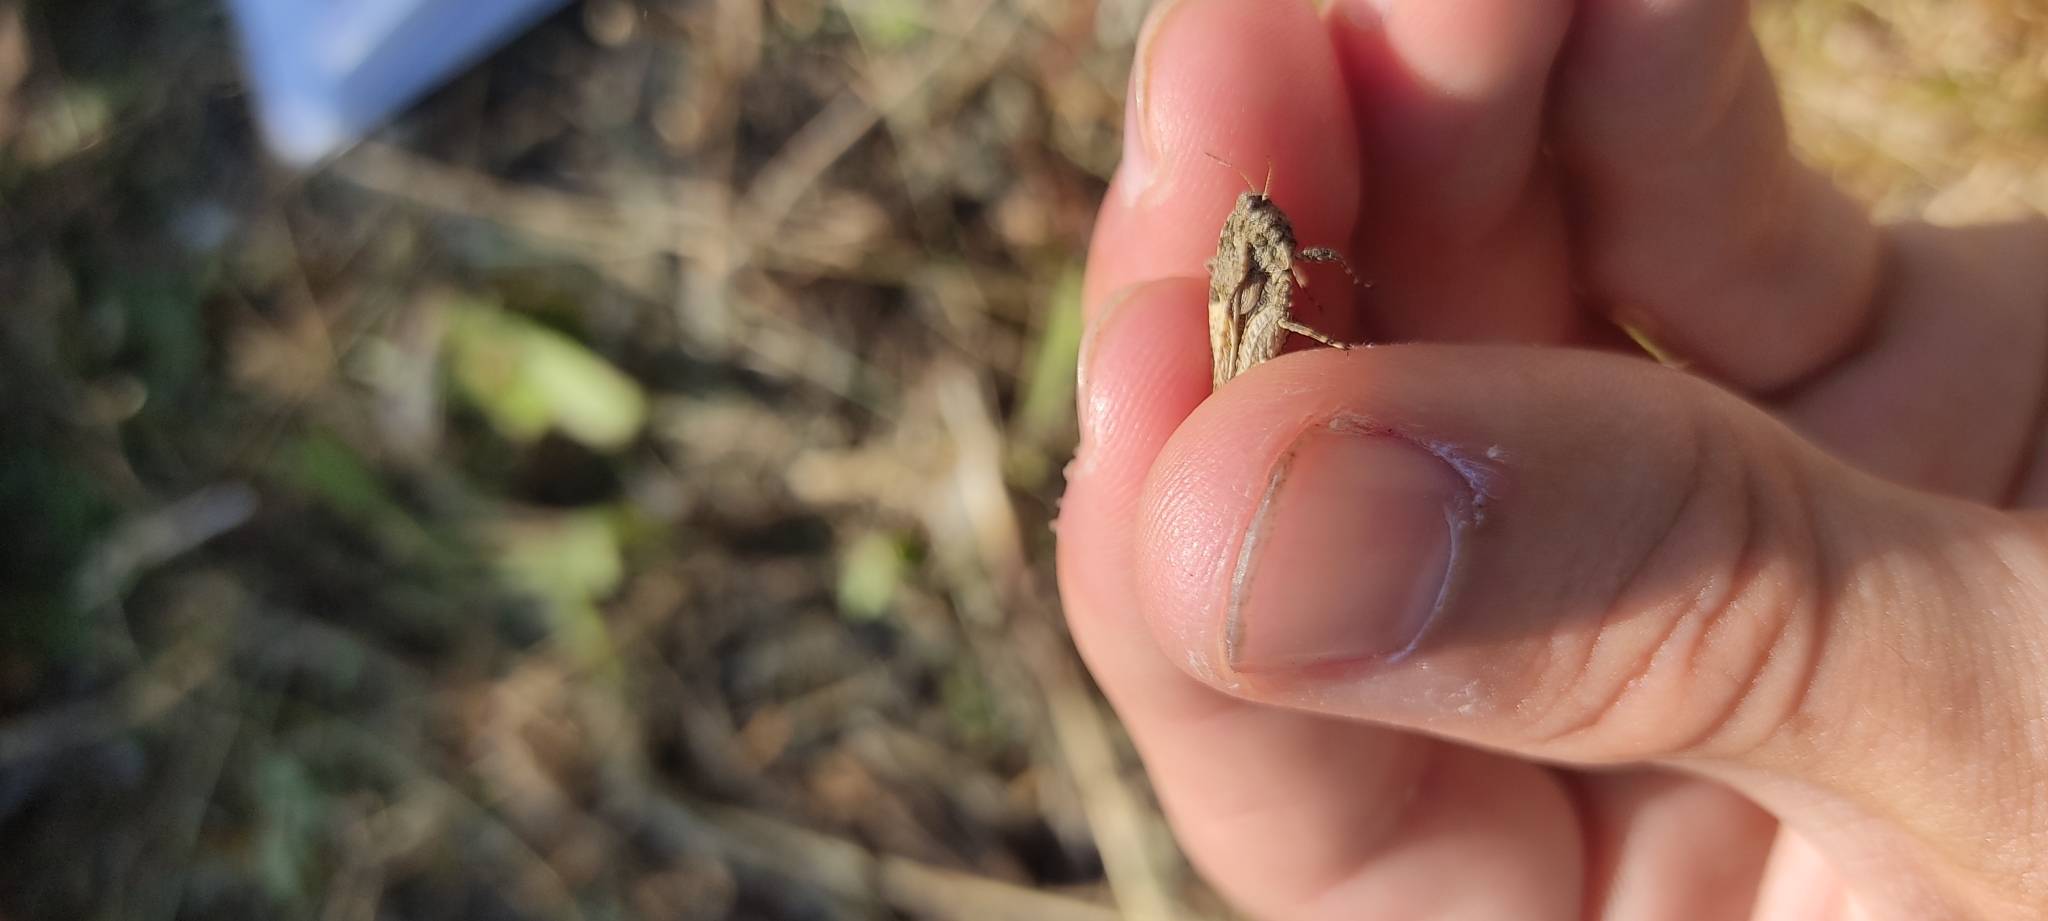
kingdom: Animalia
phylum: Arthropoda
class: Insecta
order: Orthoptera
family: Tetrigidae
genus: Tetrix
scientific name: Tetrix depressa
